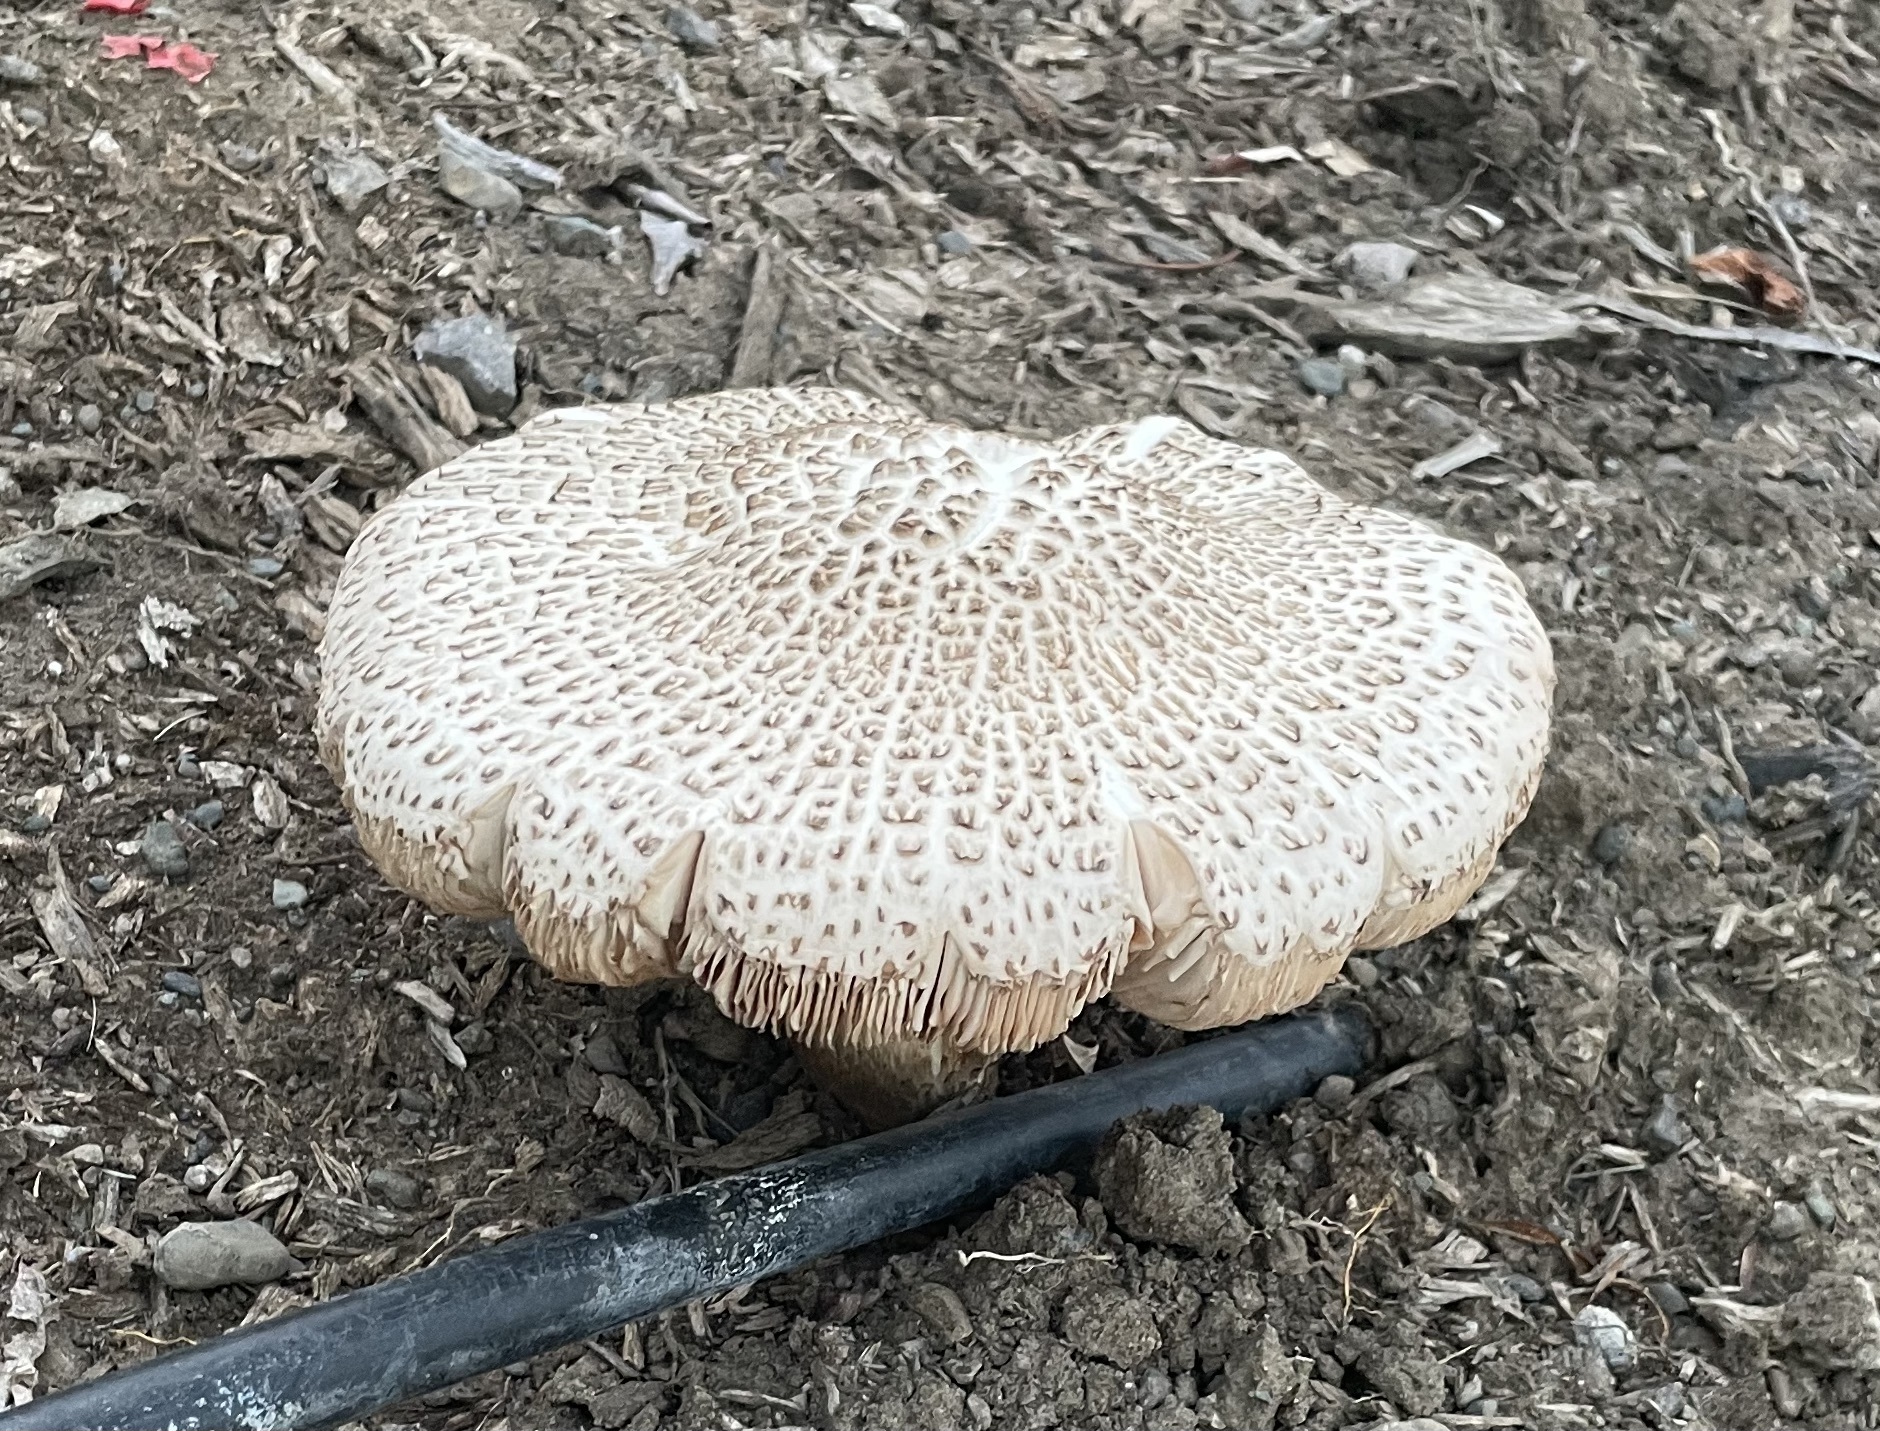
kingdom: Fungi
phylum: Basidiomycota
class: Agaricomycetes
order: Agaricales
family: Pluteaceae
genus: Pluteus
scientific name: Pluteus petasatus
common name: Scaly shield
